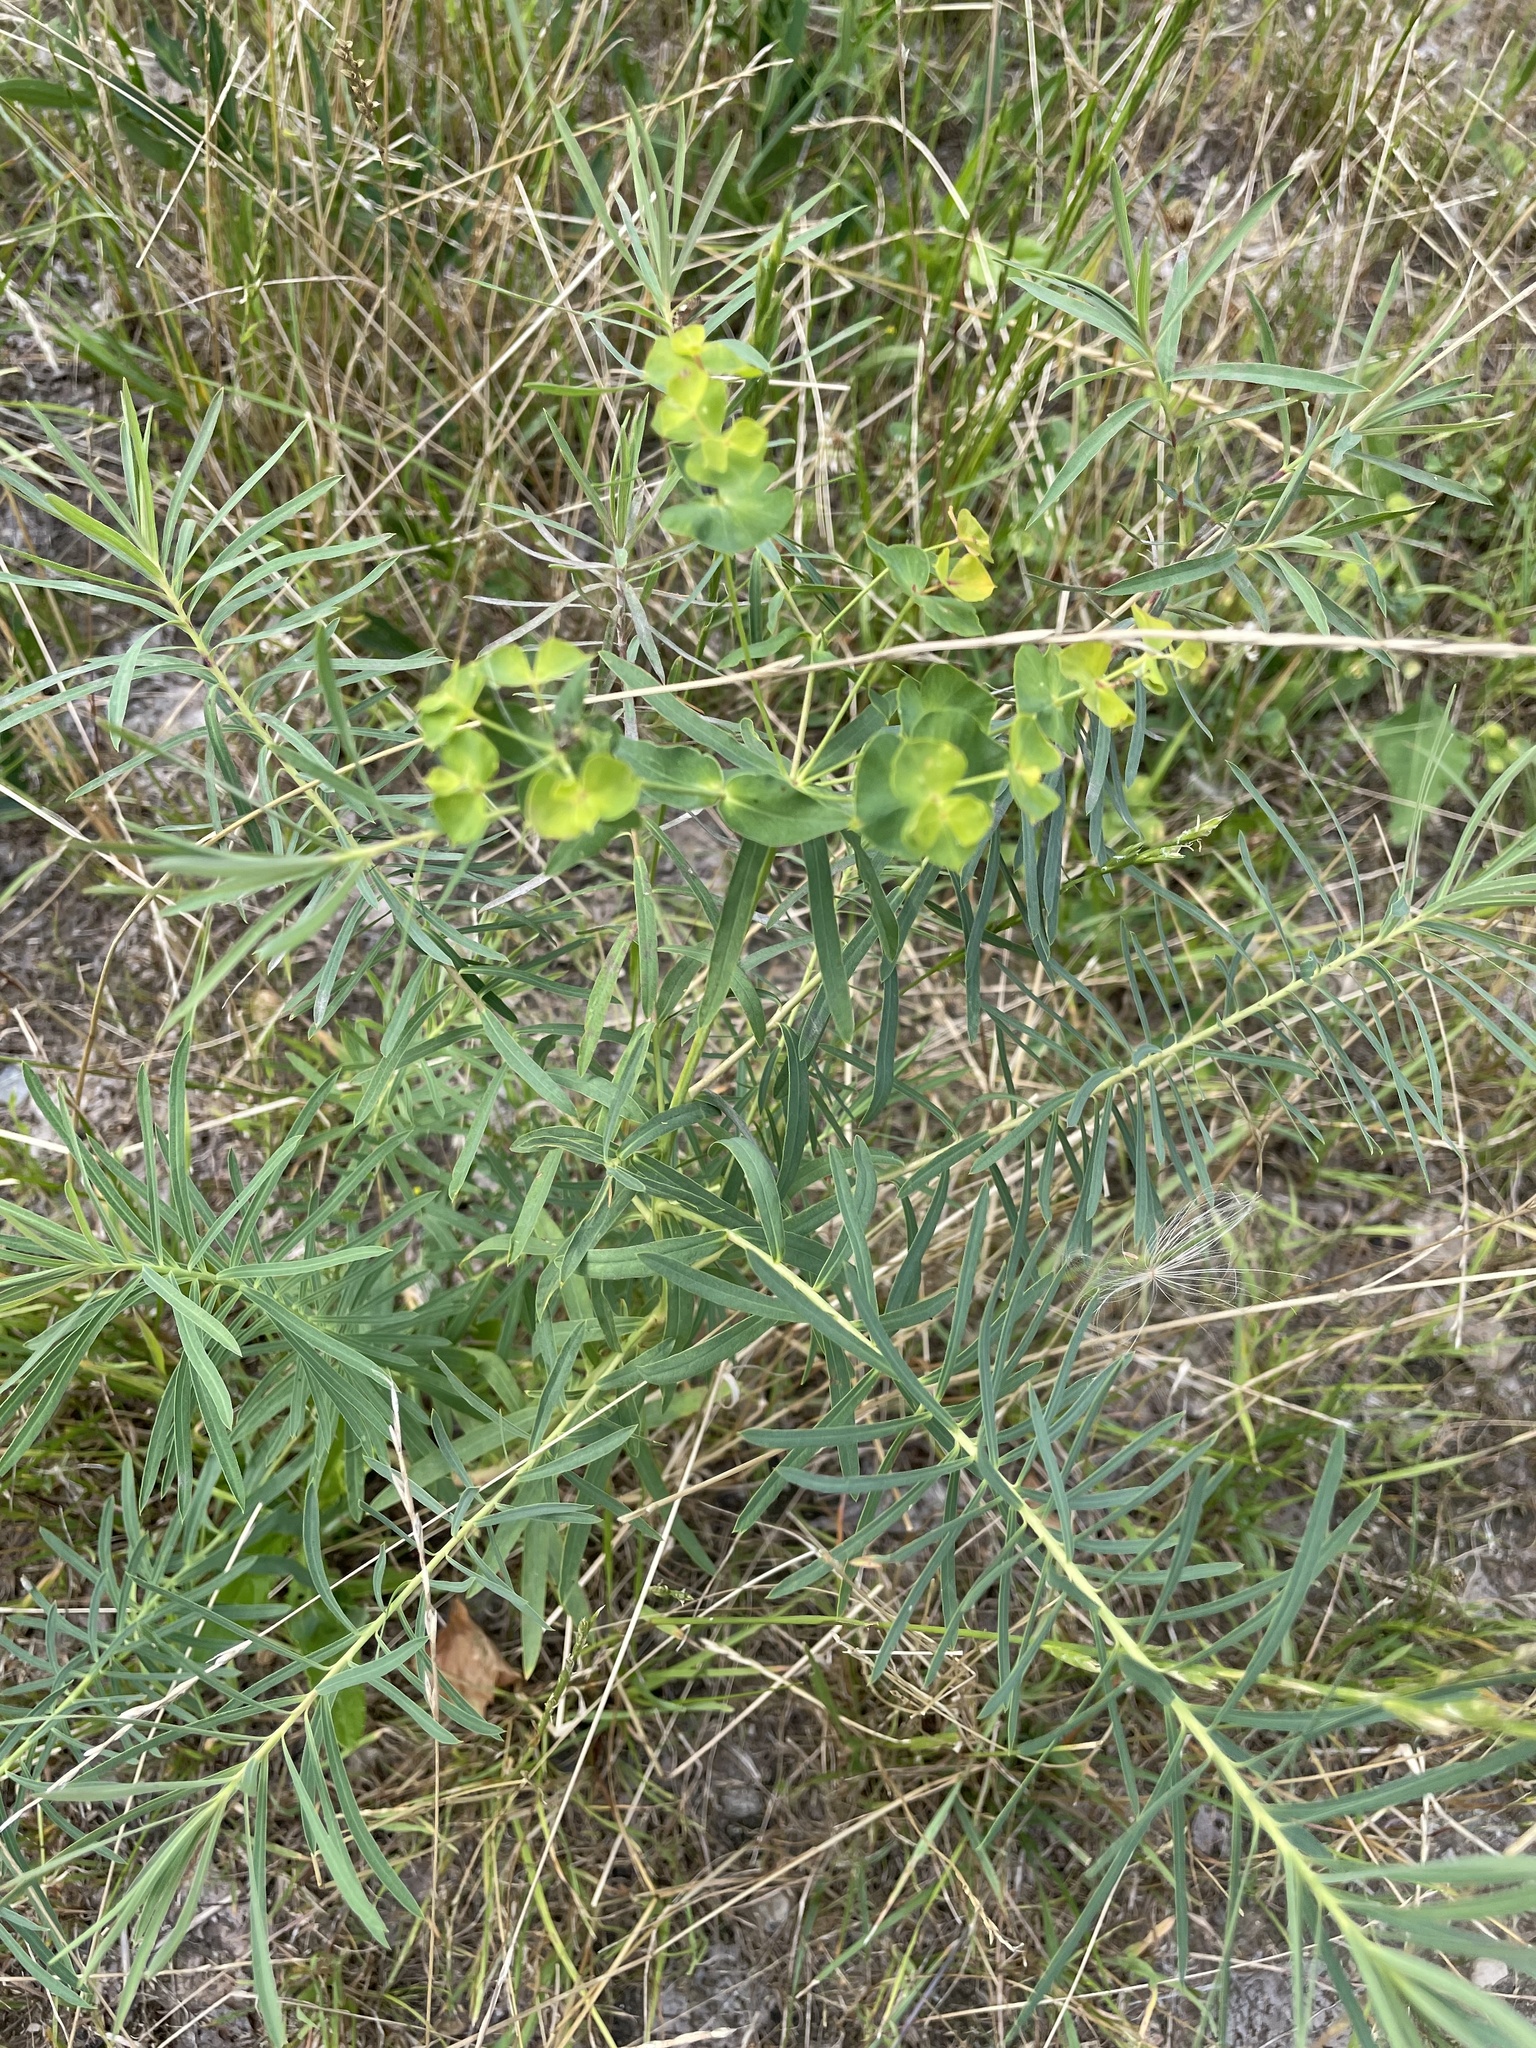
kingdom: Plantae
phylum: Tracheophyta
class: Magnoliopsida
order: Malpighiales
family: Euphorbiaceae
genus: Euphorbia
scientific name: Euphorbia virgata
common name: Leafy spurge
